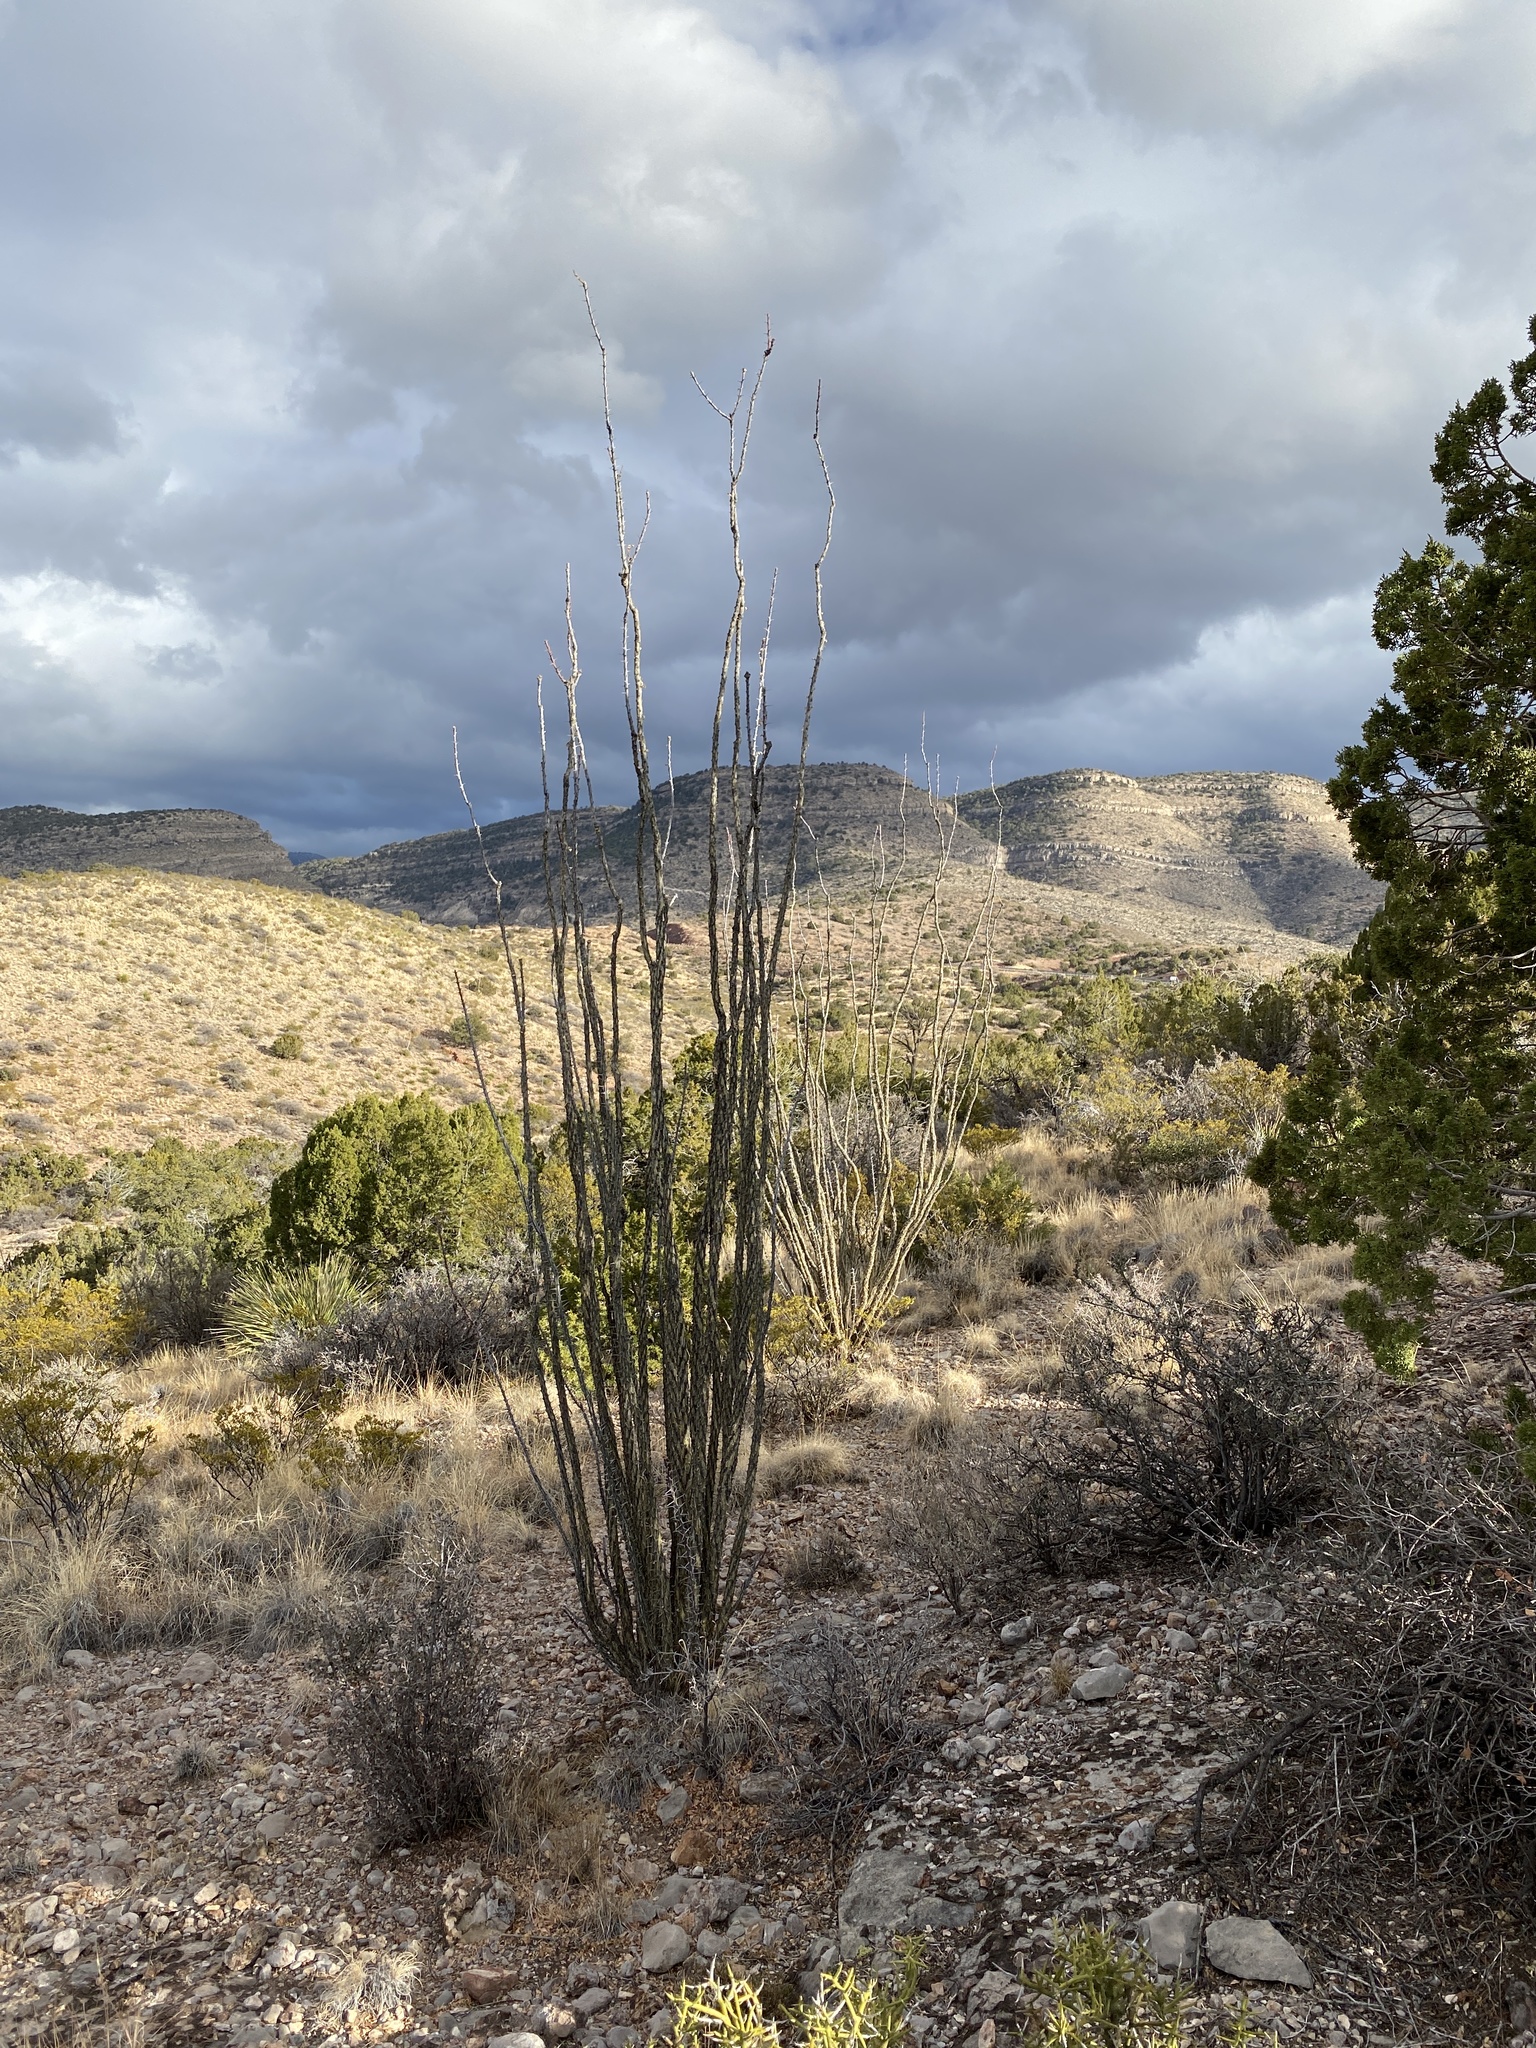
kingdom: Plantae
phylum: Tracheophyta
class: Magnoliopsida
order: Ericales
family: Fouquieriaceae
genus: Fouquieria
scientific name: Fouquieria splendens
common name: Vine-cactus
